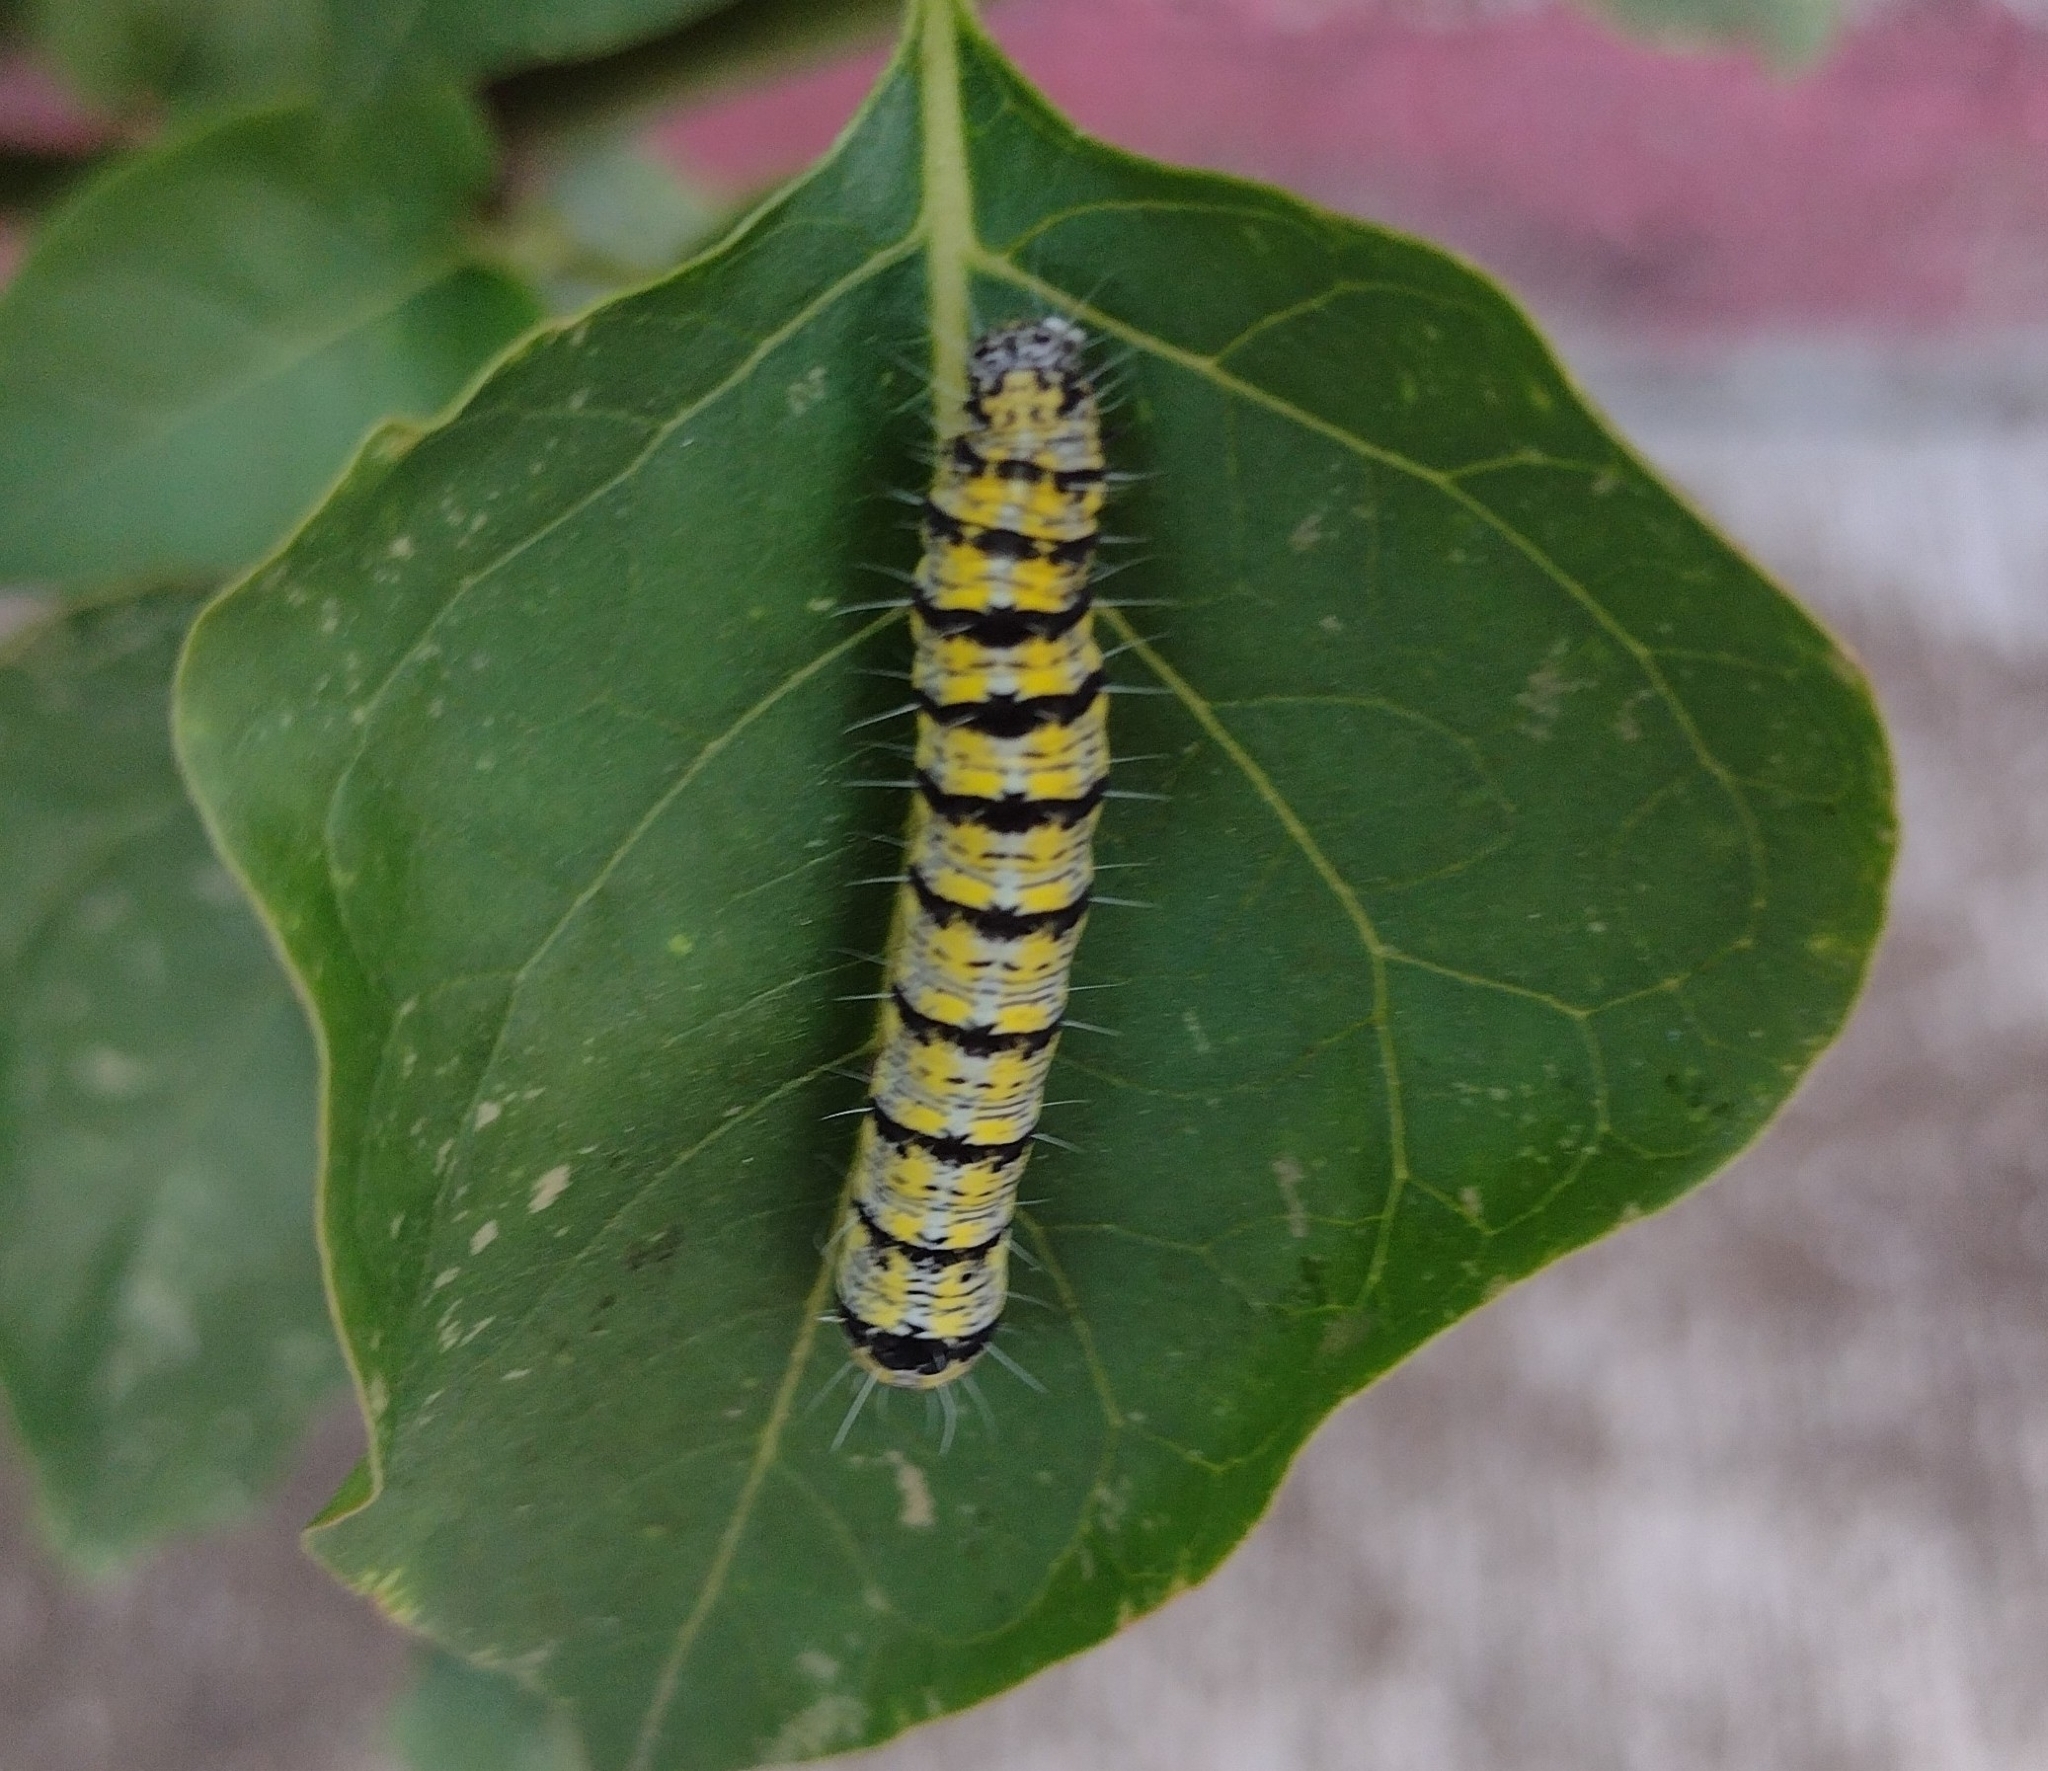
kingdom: Animalia
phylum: Arthropoda
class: Insecta
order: Lepidoptera
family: Noctuidae
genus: Alypiodes
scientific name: Alypiodes bimaculata
